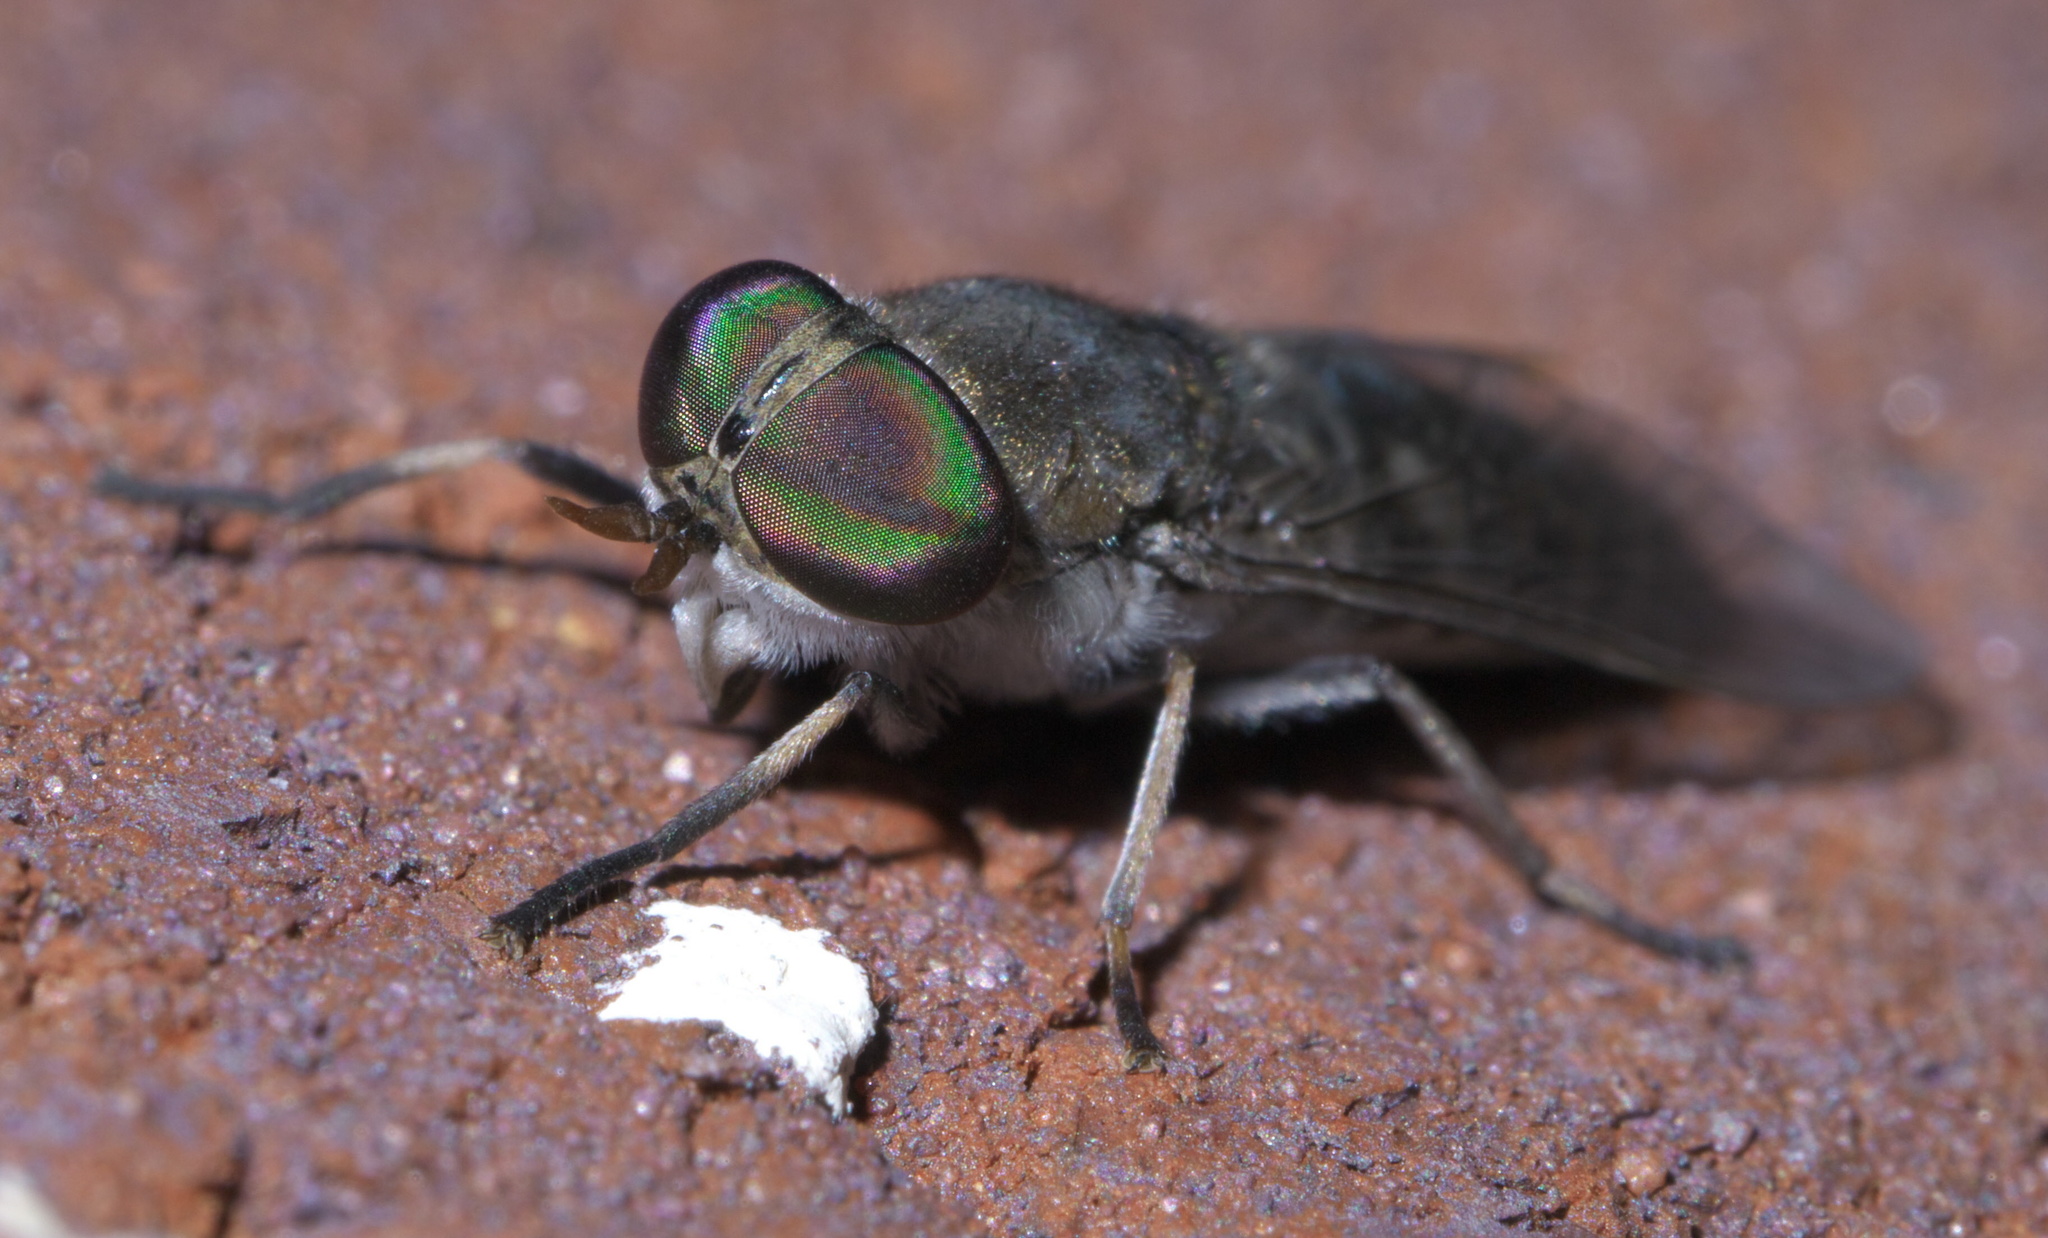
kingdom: Animalia
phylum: Arthropoda
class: Insecta
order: Diptera
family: Tabanidae
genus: Tabanus
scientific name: Tabanus sparus
